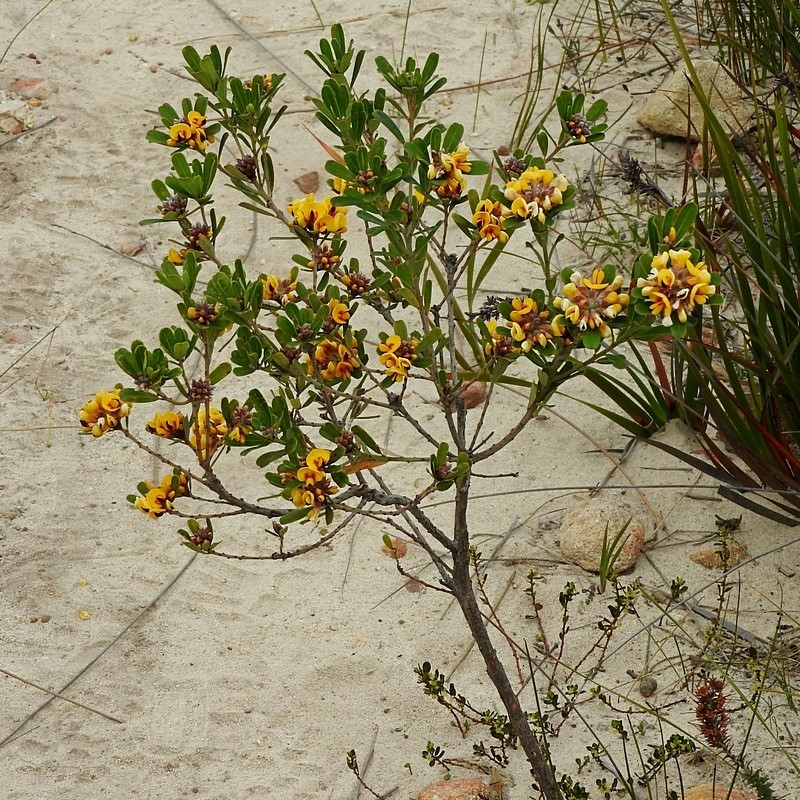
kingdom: Plantae
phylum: Tracheophyta
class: Magnoliopsida
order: Fabales
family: Fabaceae
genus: Pultenaea
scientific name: Pultenaea daphnoides
